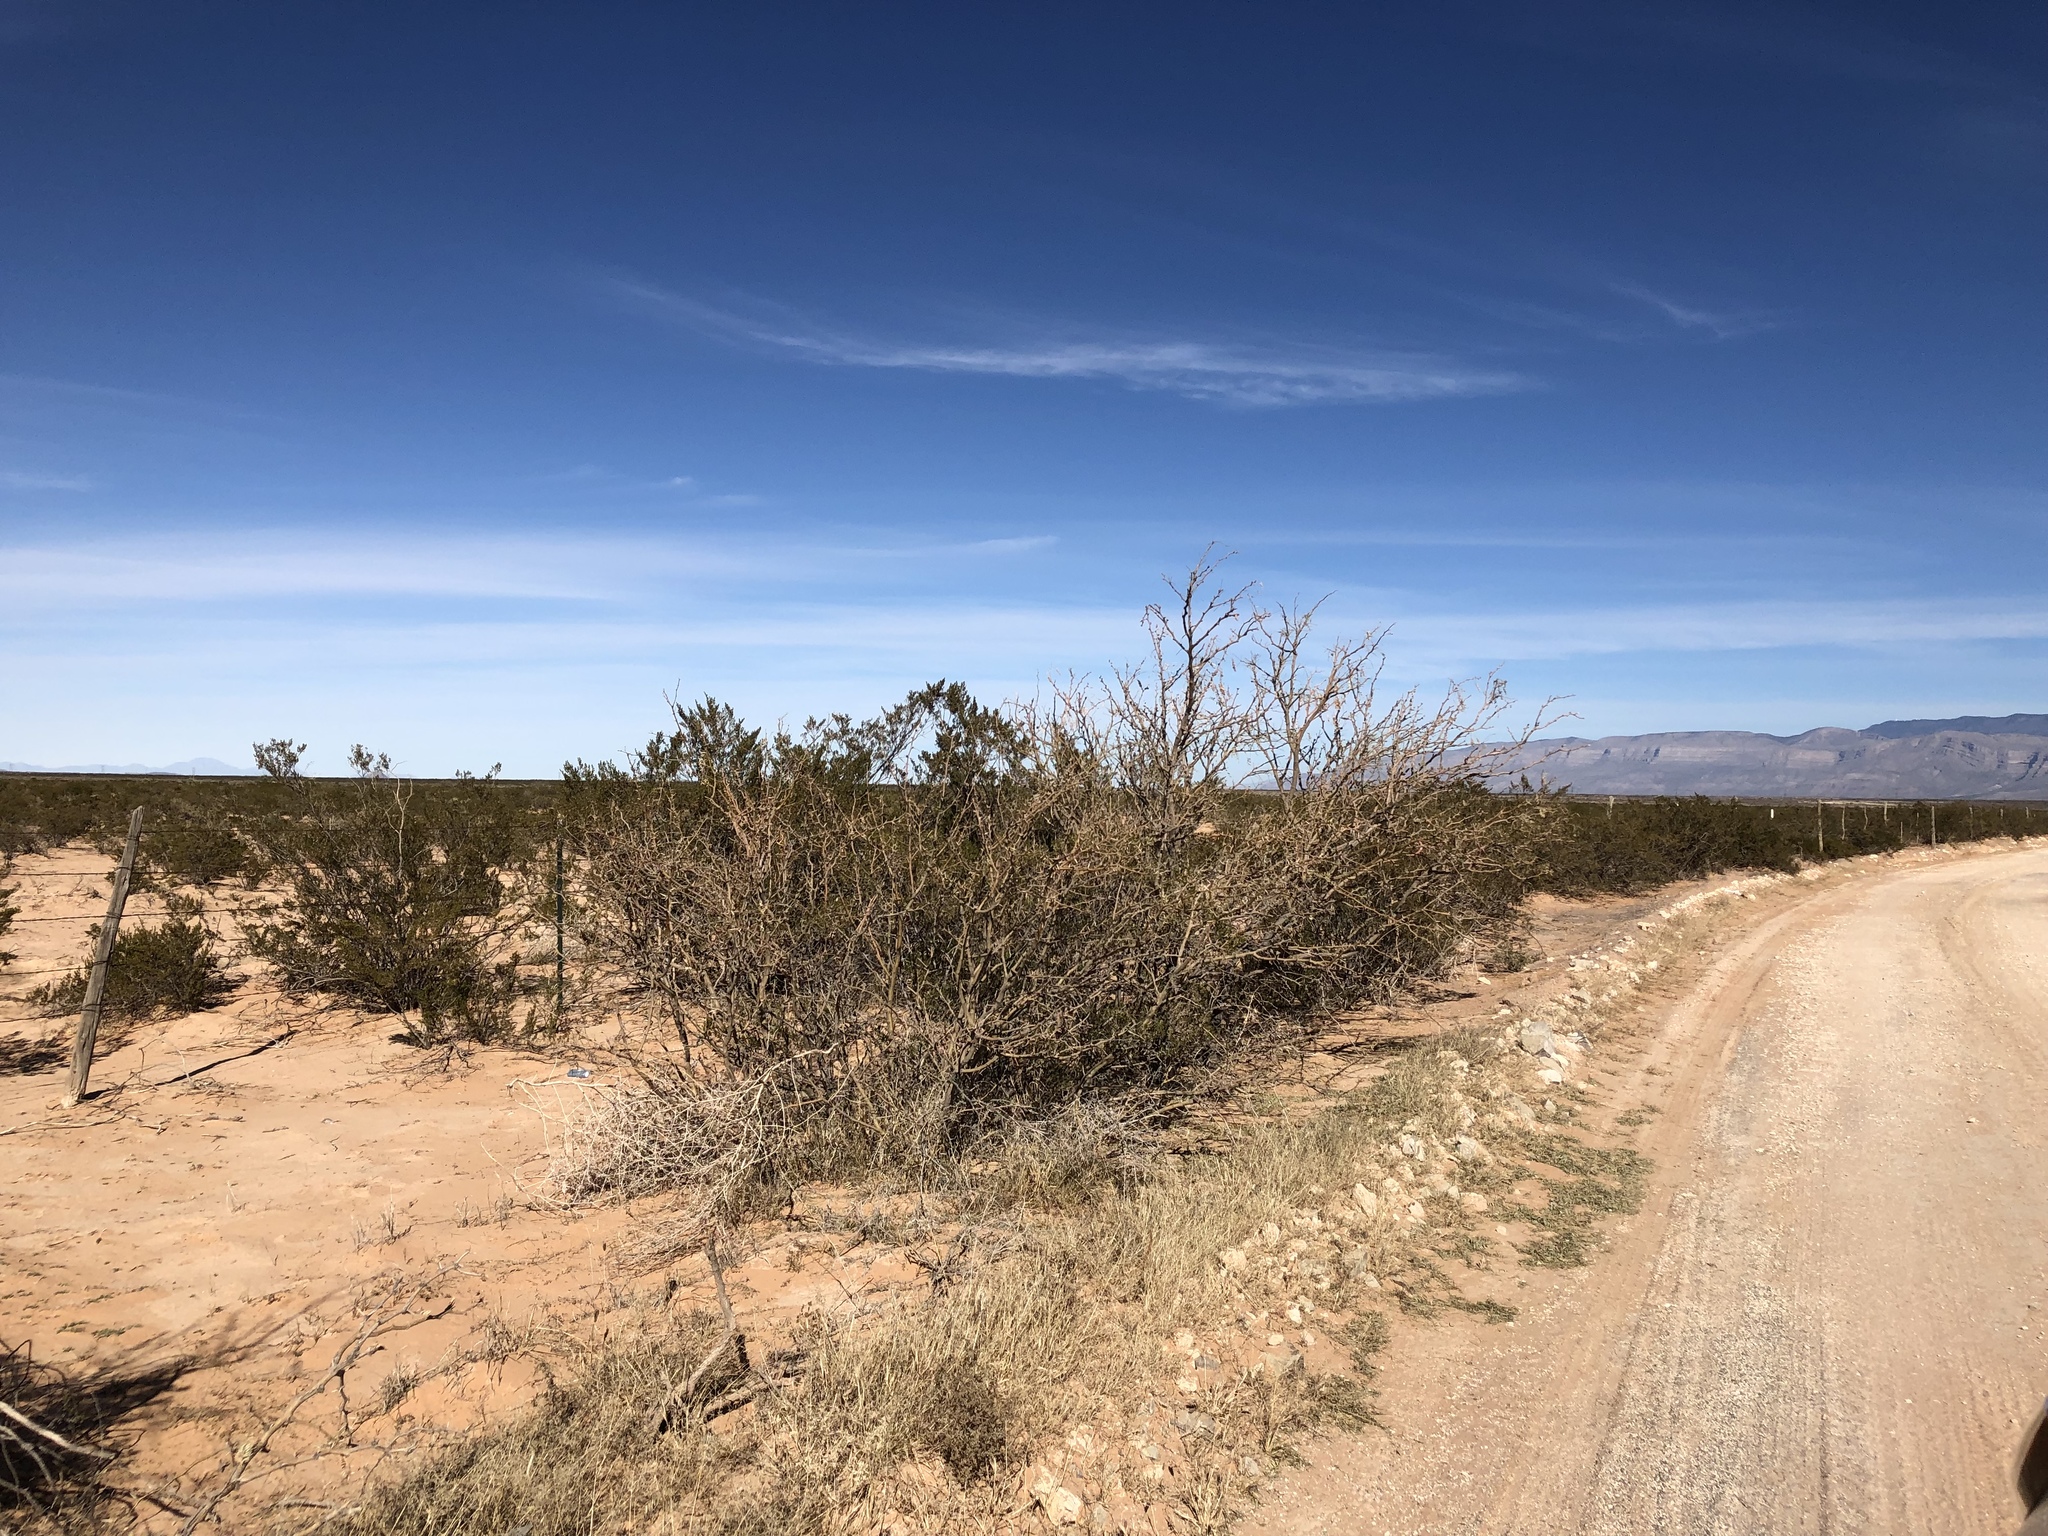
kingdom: Plantae
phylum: Tracheophyta
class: Magnoliopsida
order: Fabales
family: Fabaceae
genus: Prosopis
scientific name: Prosopis glandulosa
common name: Honey mesquite
